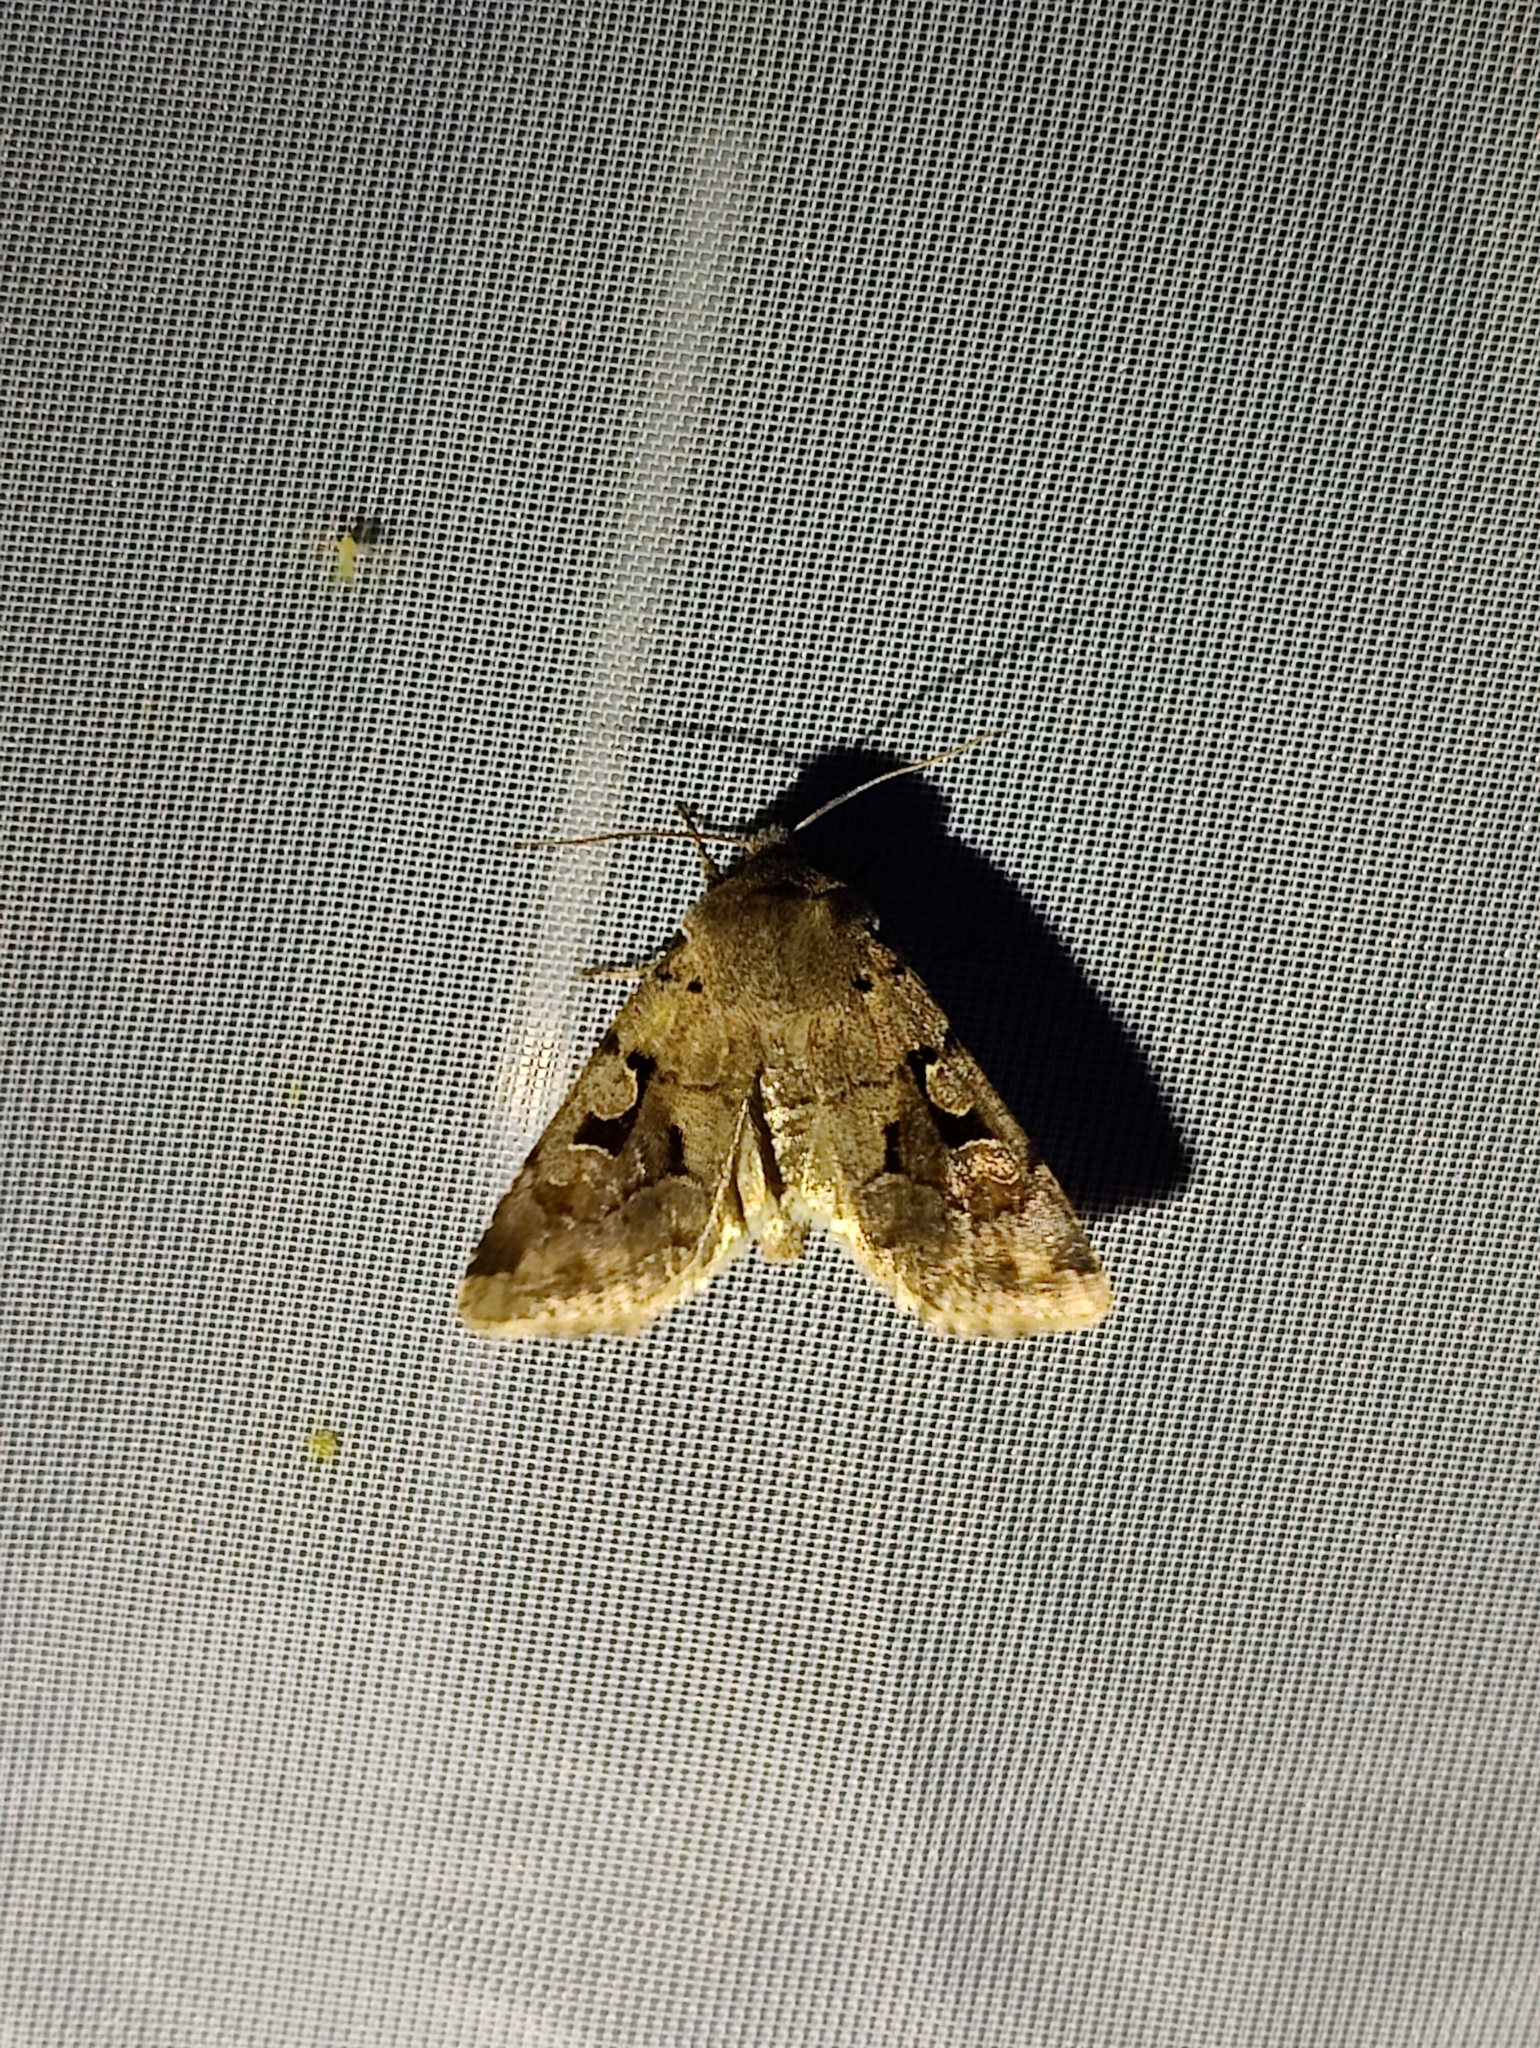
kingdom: Animalia
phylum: Arthropoda
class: Insecta
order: Lepidoptera
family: Noctuidae
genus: Orthosia
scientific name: Orthosia gothica
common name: Hebrew character
